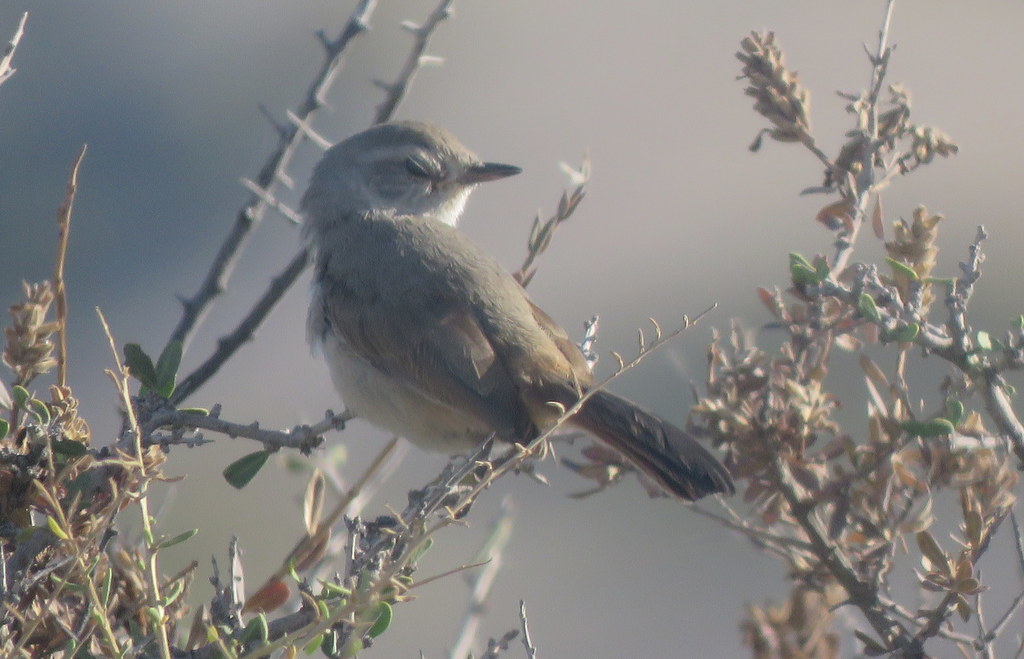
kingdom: Animalia
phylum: Chordata
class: Aves
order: Passeriformes
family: Furnariidae
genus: Asthenes
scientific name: Asthenes baeri
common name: Short-billed canastero
